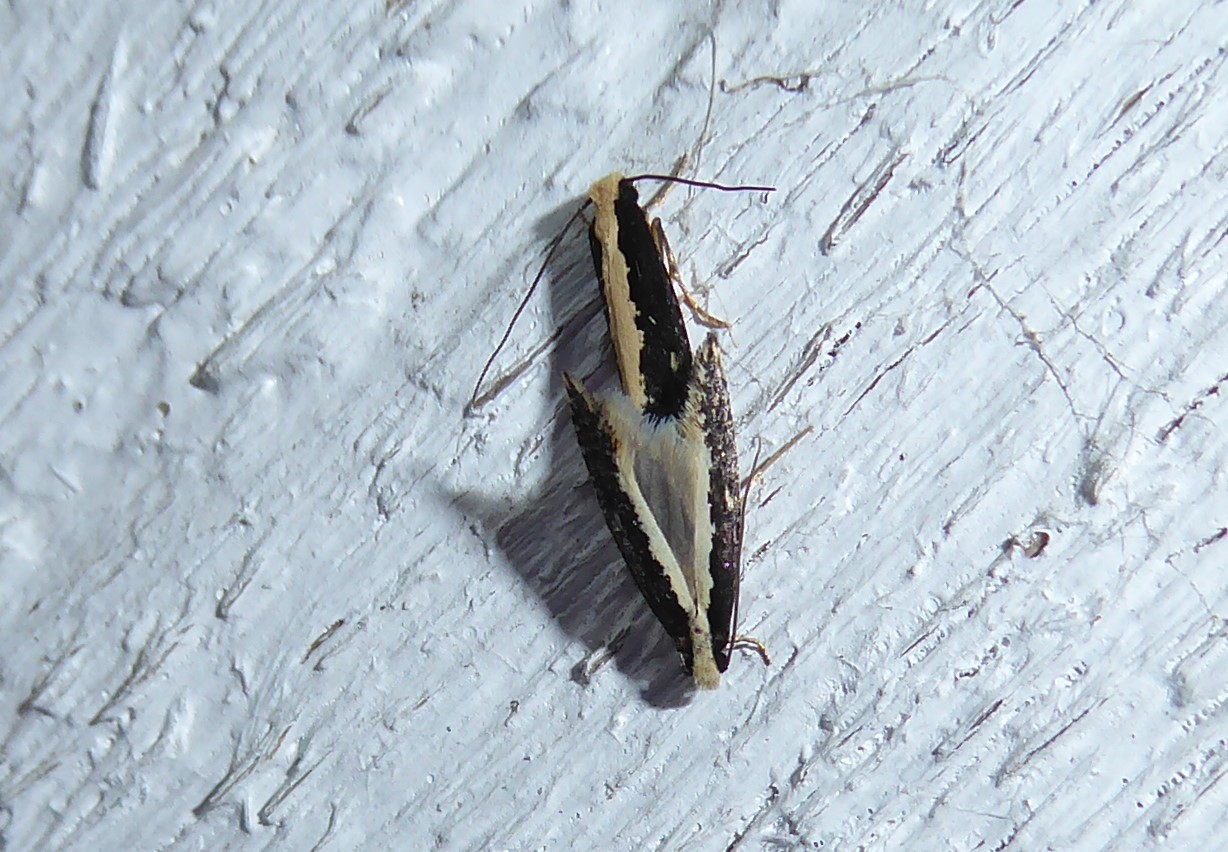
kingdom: Animalia
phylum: Arthropoda
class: Insecta
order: Lepidoptera
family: Tineidae
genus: Monopis
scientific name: Monopis ethelella
